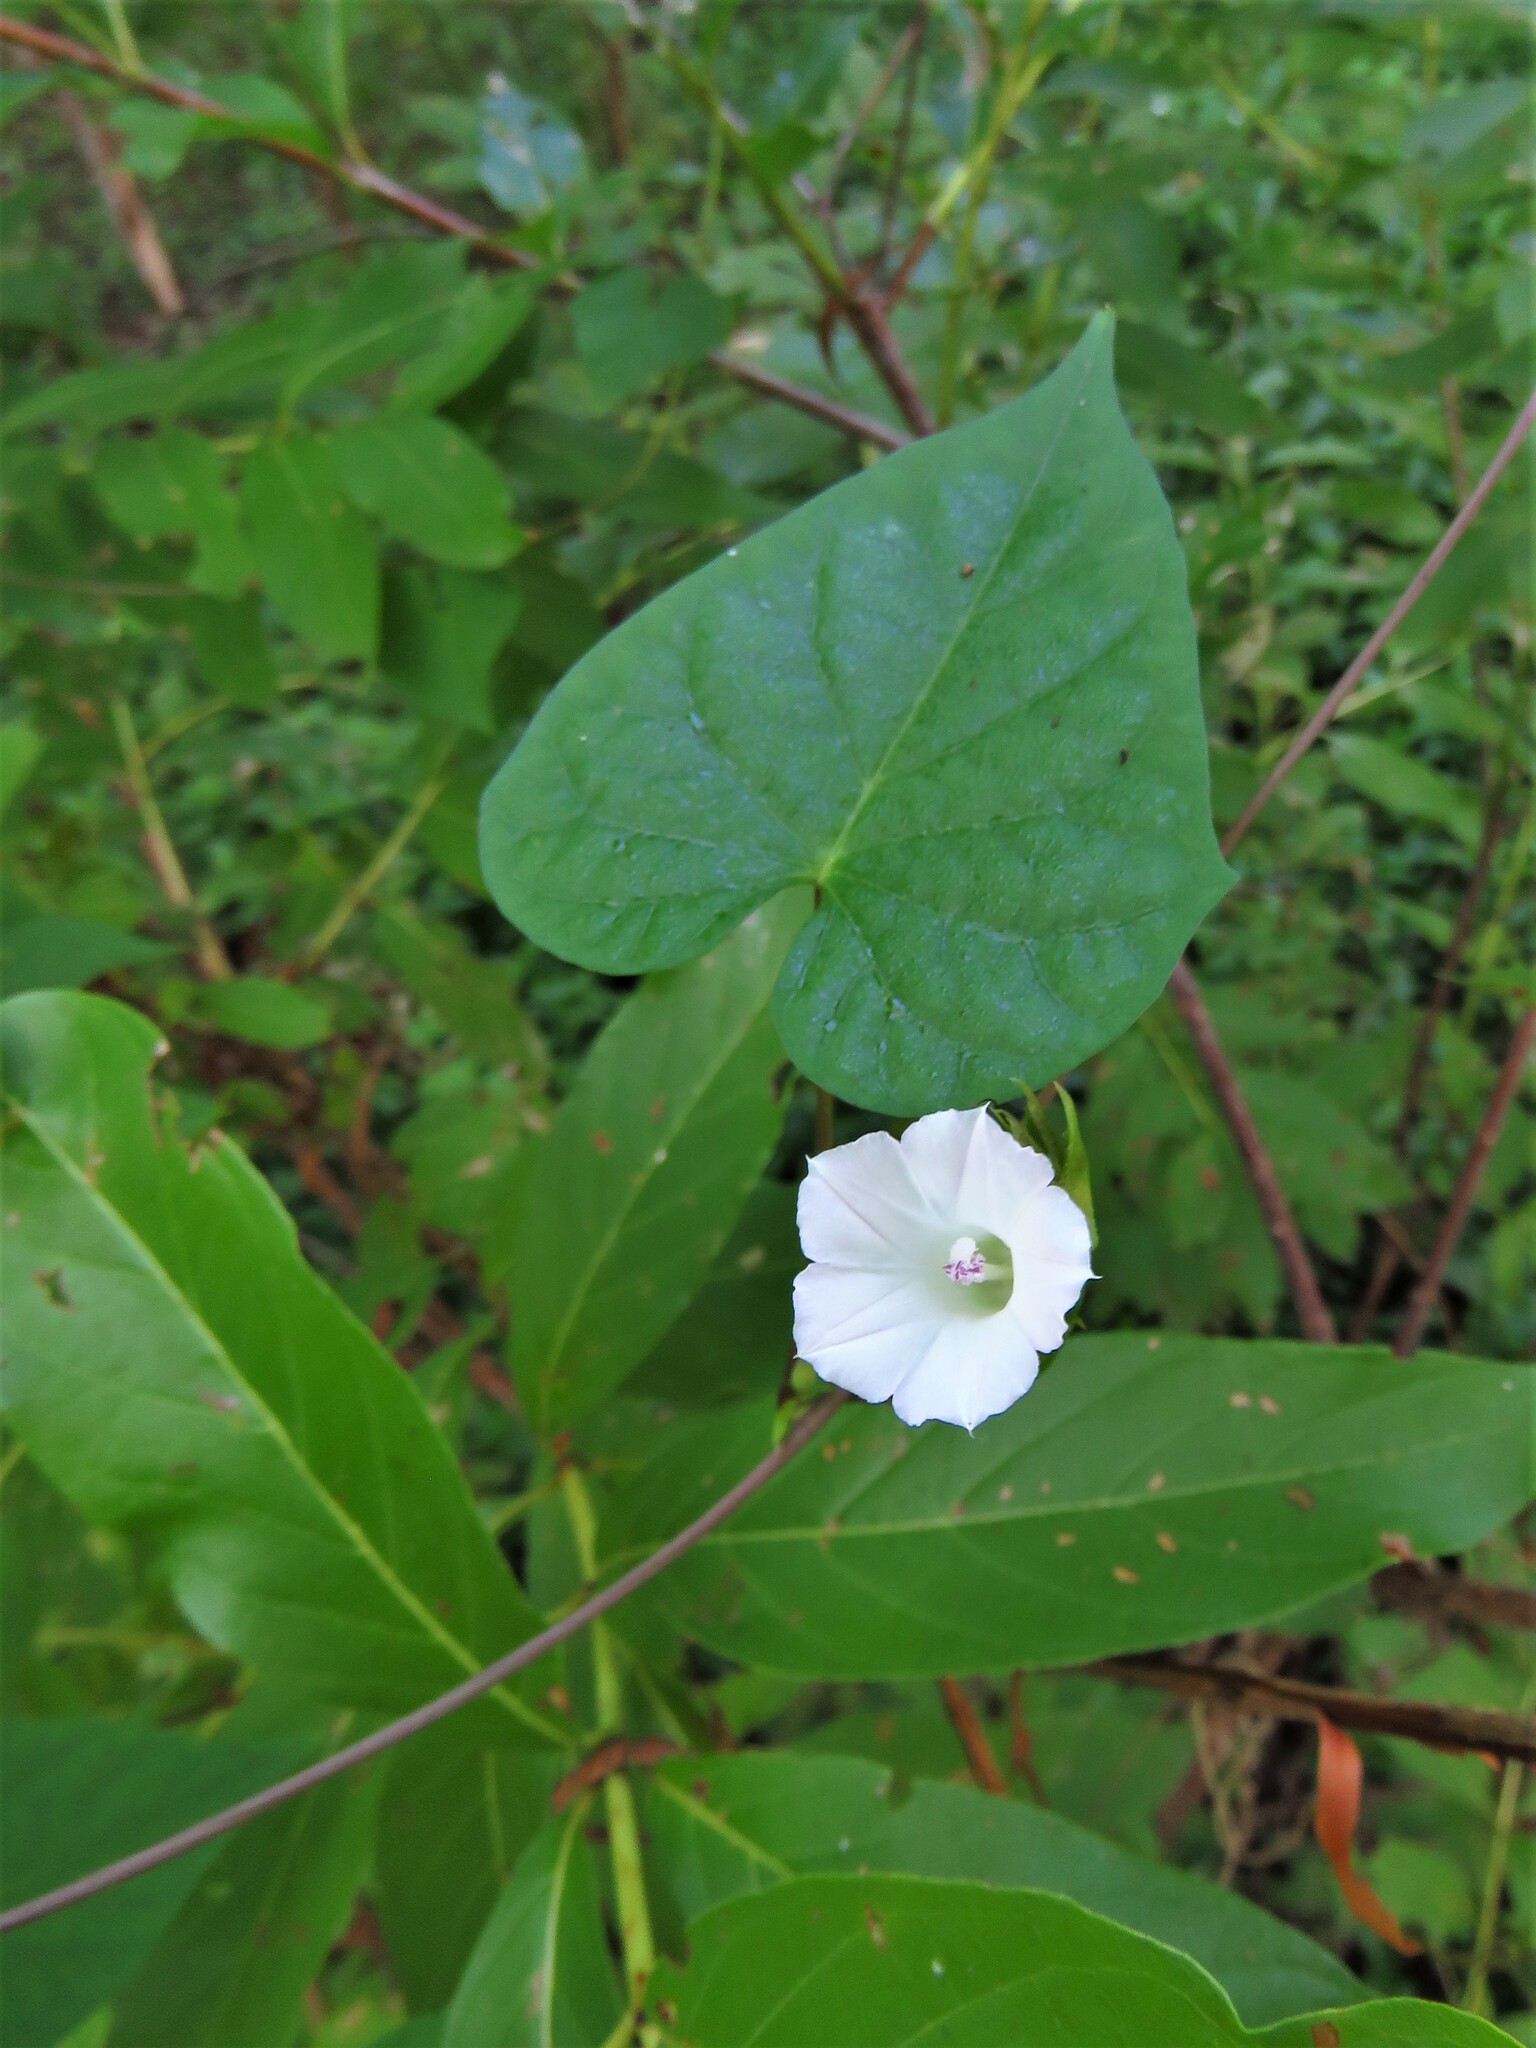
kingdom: Plantae
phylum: Tracheophyta
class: Magnoliopsida
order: Solanales
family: Convolvulaceae
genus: Ipomoea
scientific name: Ipomoea lacunosa
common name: White morning-glory
